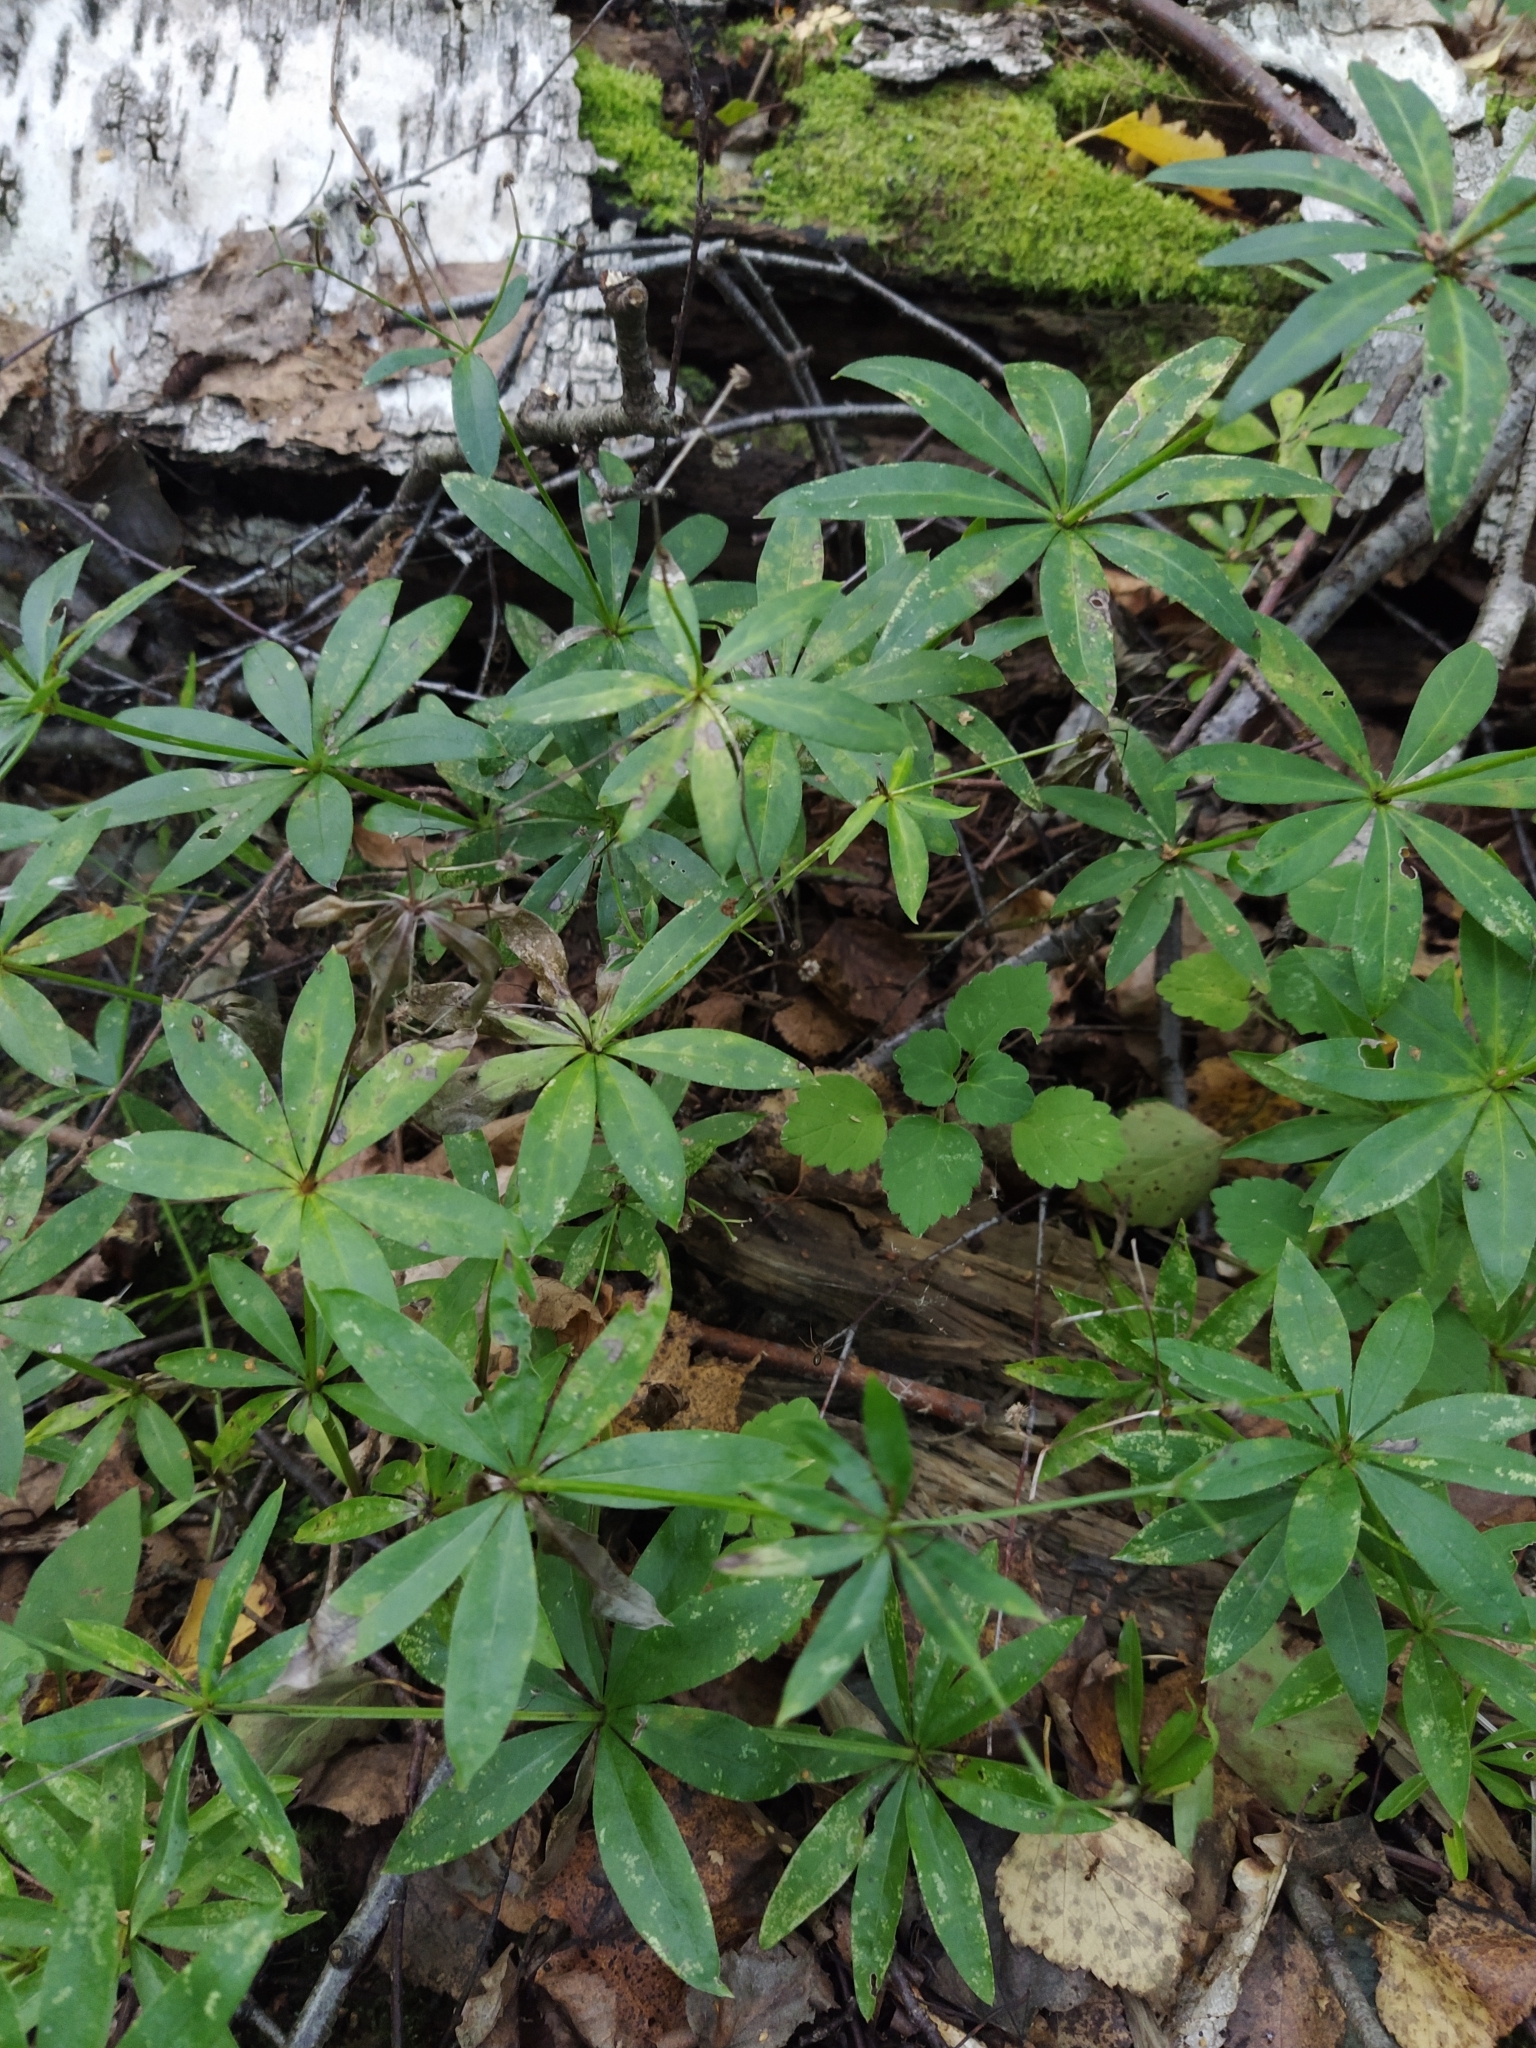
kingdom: Plantae
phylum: Tracheophyta
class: Magnoliopsida
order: Gentianales
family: Rubiaceae
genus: Galium
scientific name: Galium odoratum
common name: Sweet woodruff
